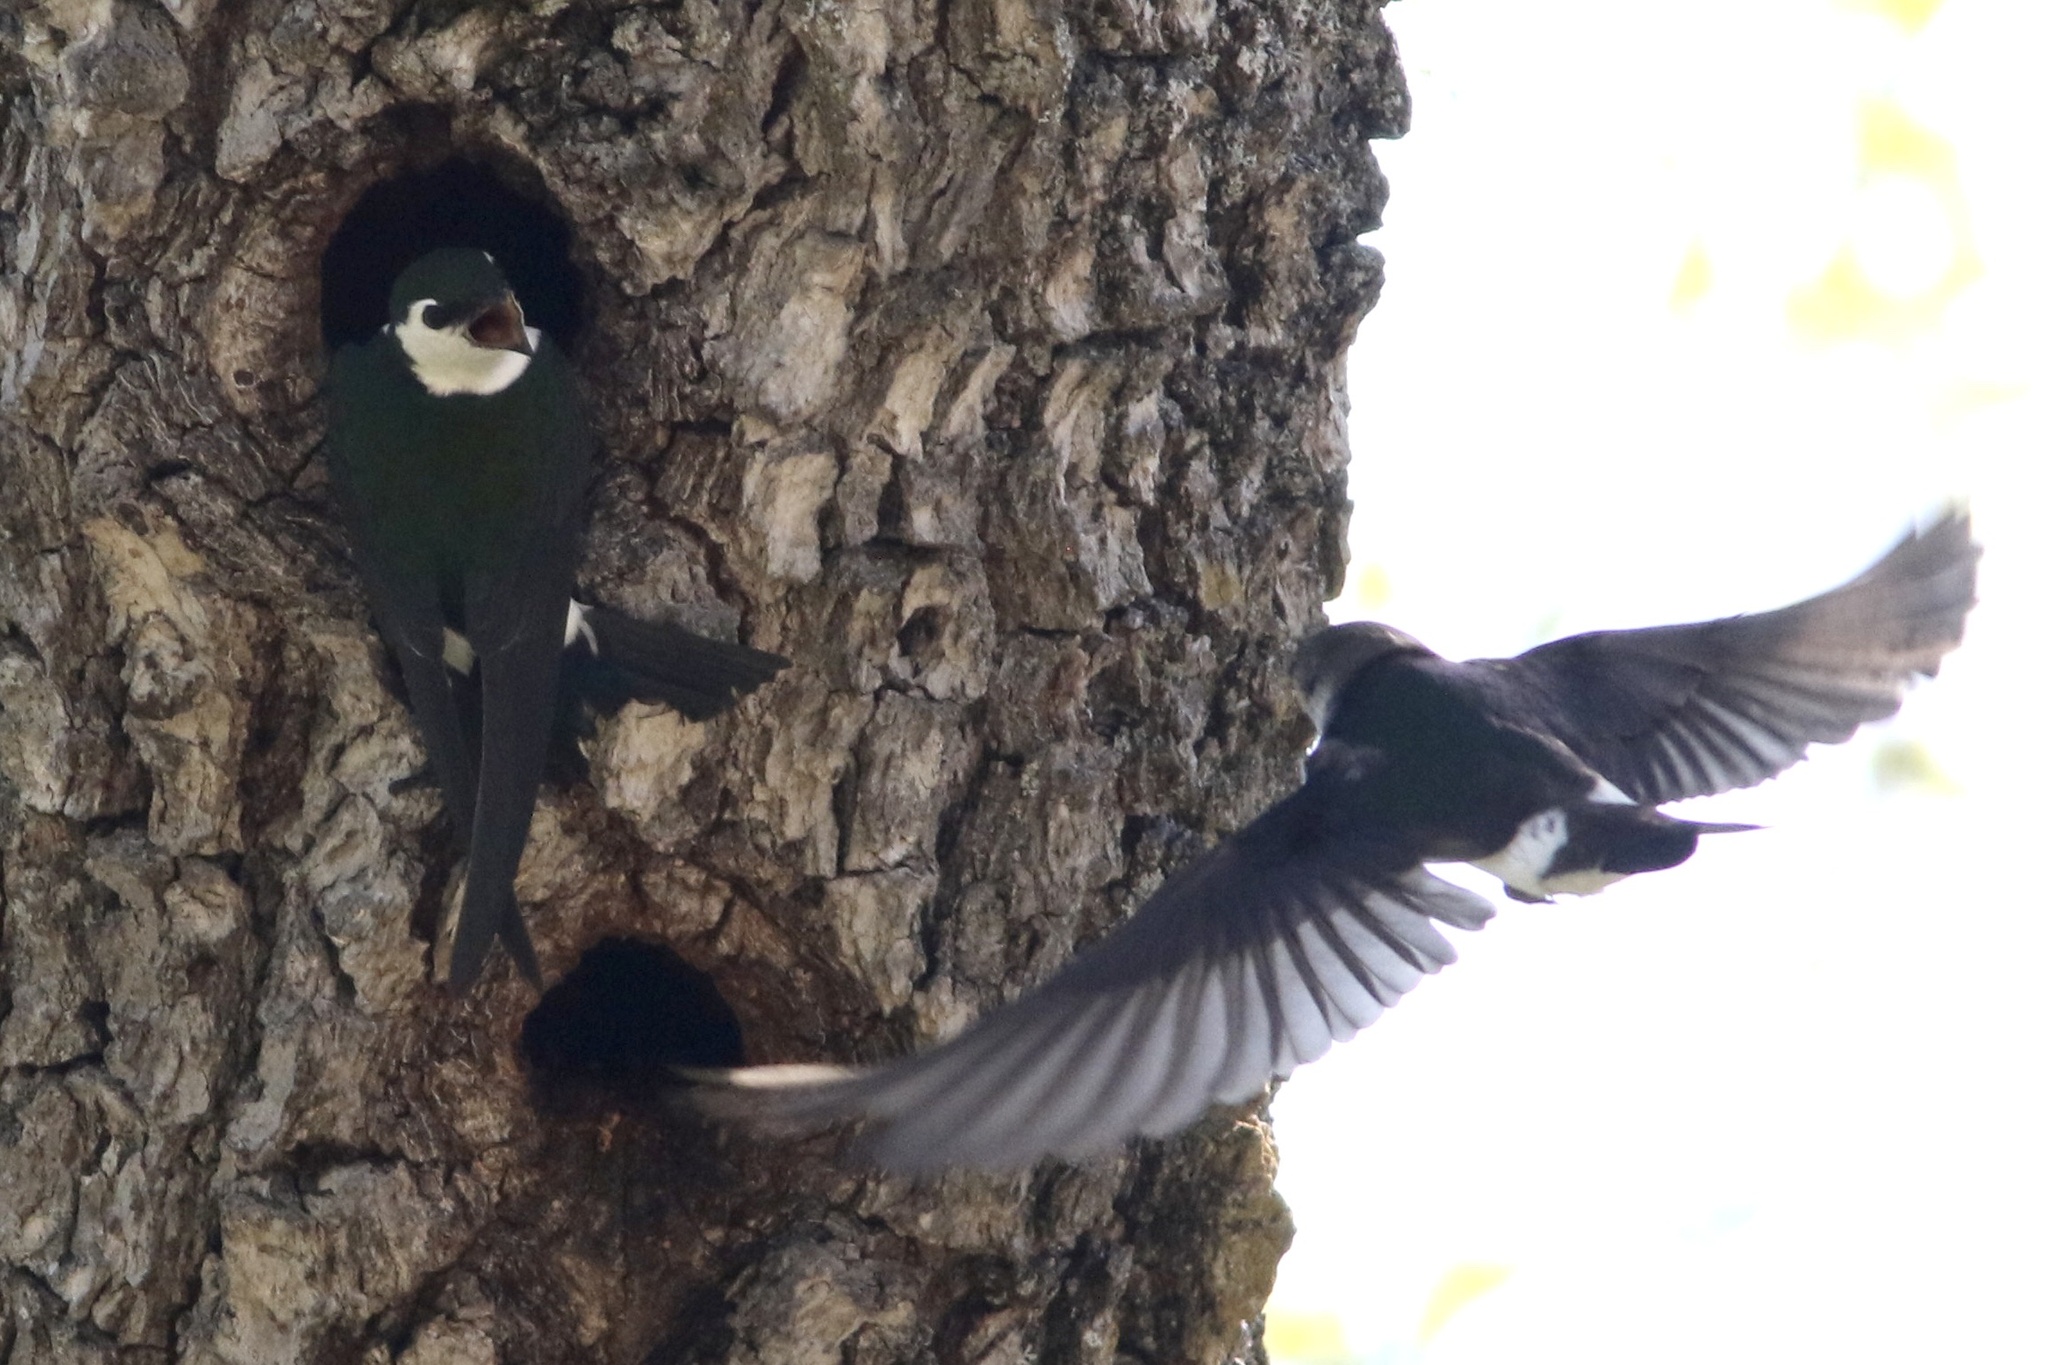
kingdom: Animalia
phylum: Chordata
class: Aves
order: Passeriformes
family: Hirundinidae
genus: Tachycineta
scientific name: Tachycineta thalassina
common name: Violet-green swallow
